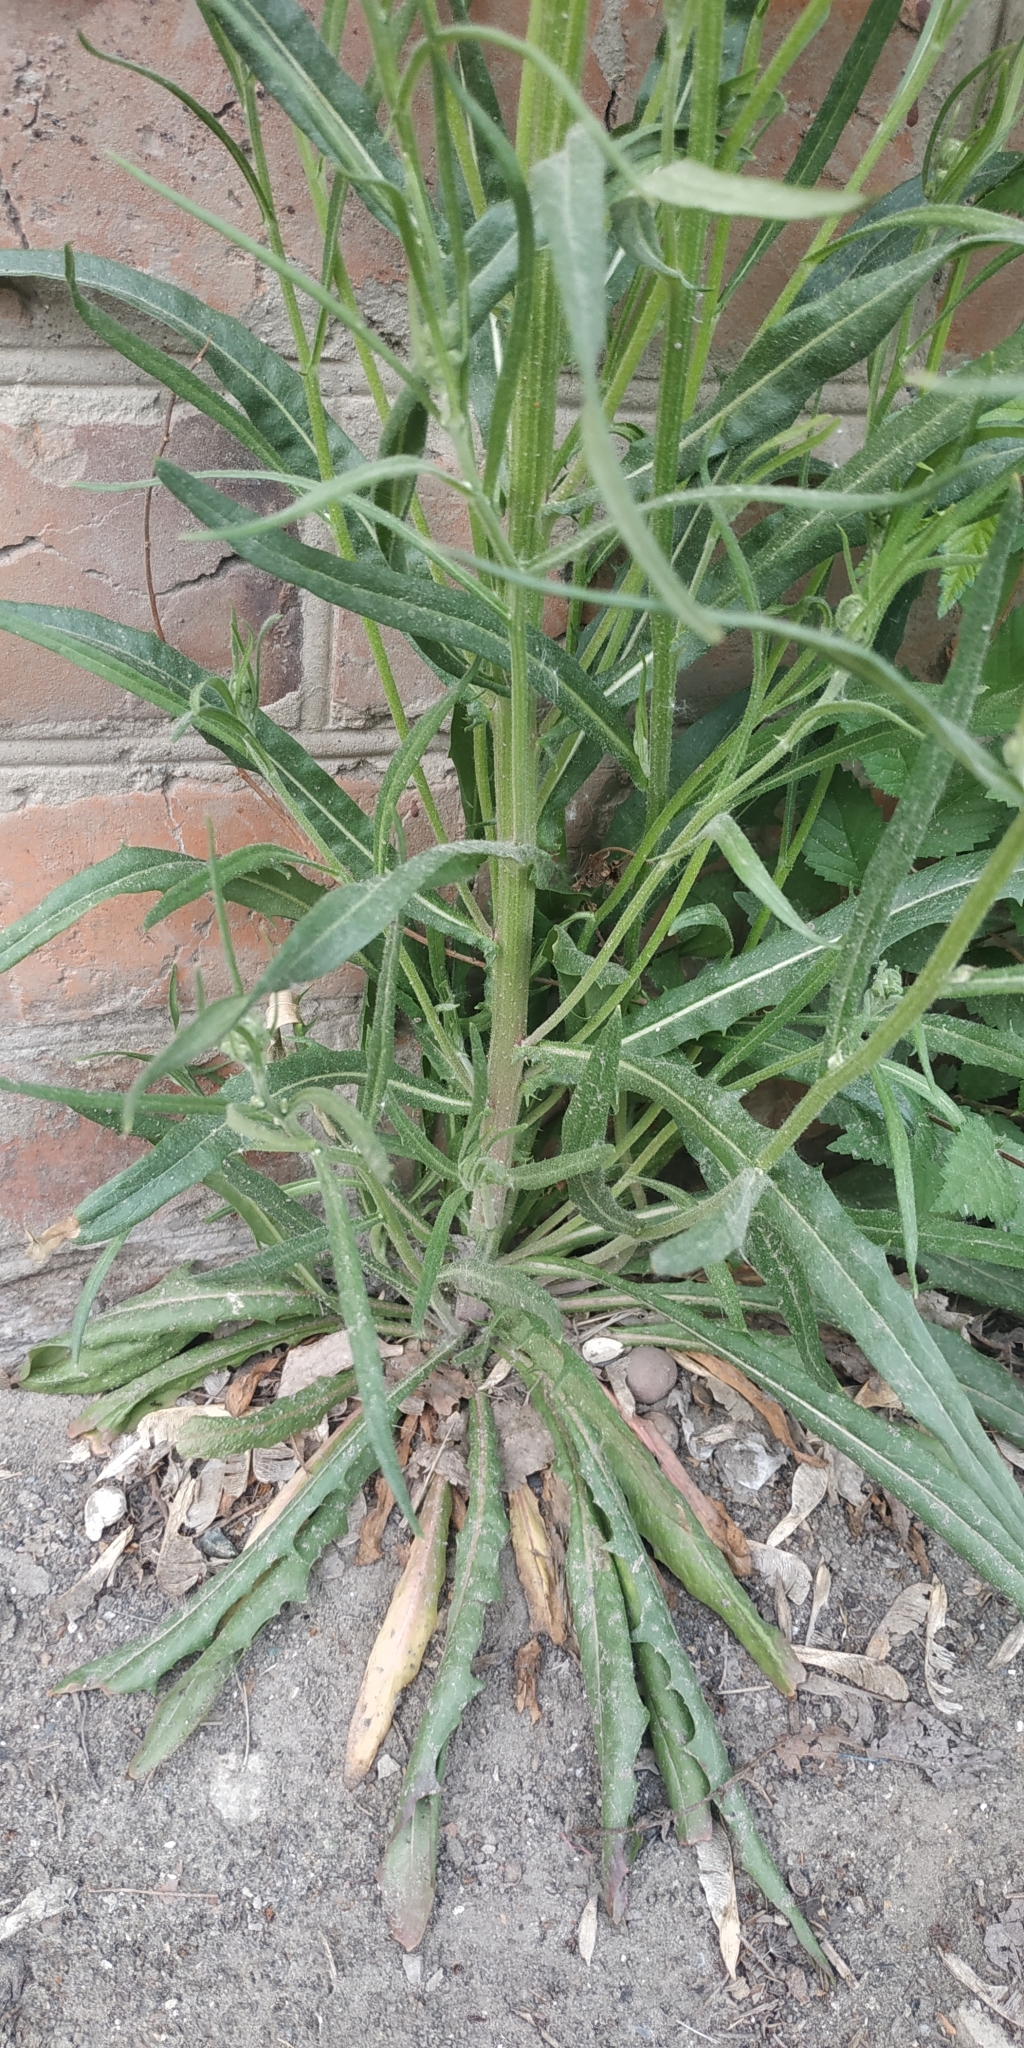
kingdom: Plantae
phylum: Tracheophyta
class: Magnoliopsida
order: Asterales
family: Asteraceae
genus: Crepis
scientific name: Crepis tectorum
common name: Narrow-leaved hawk's-beard
